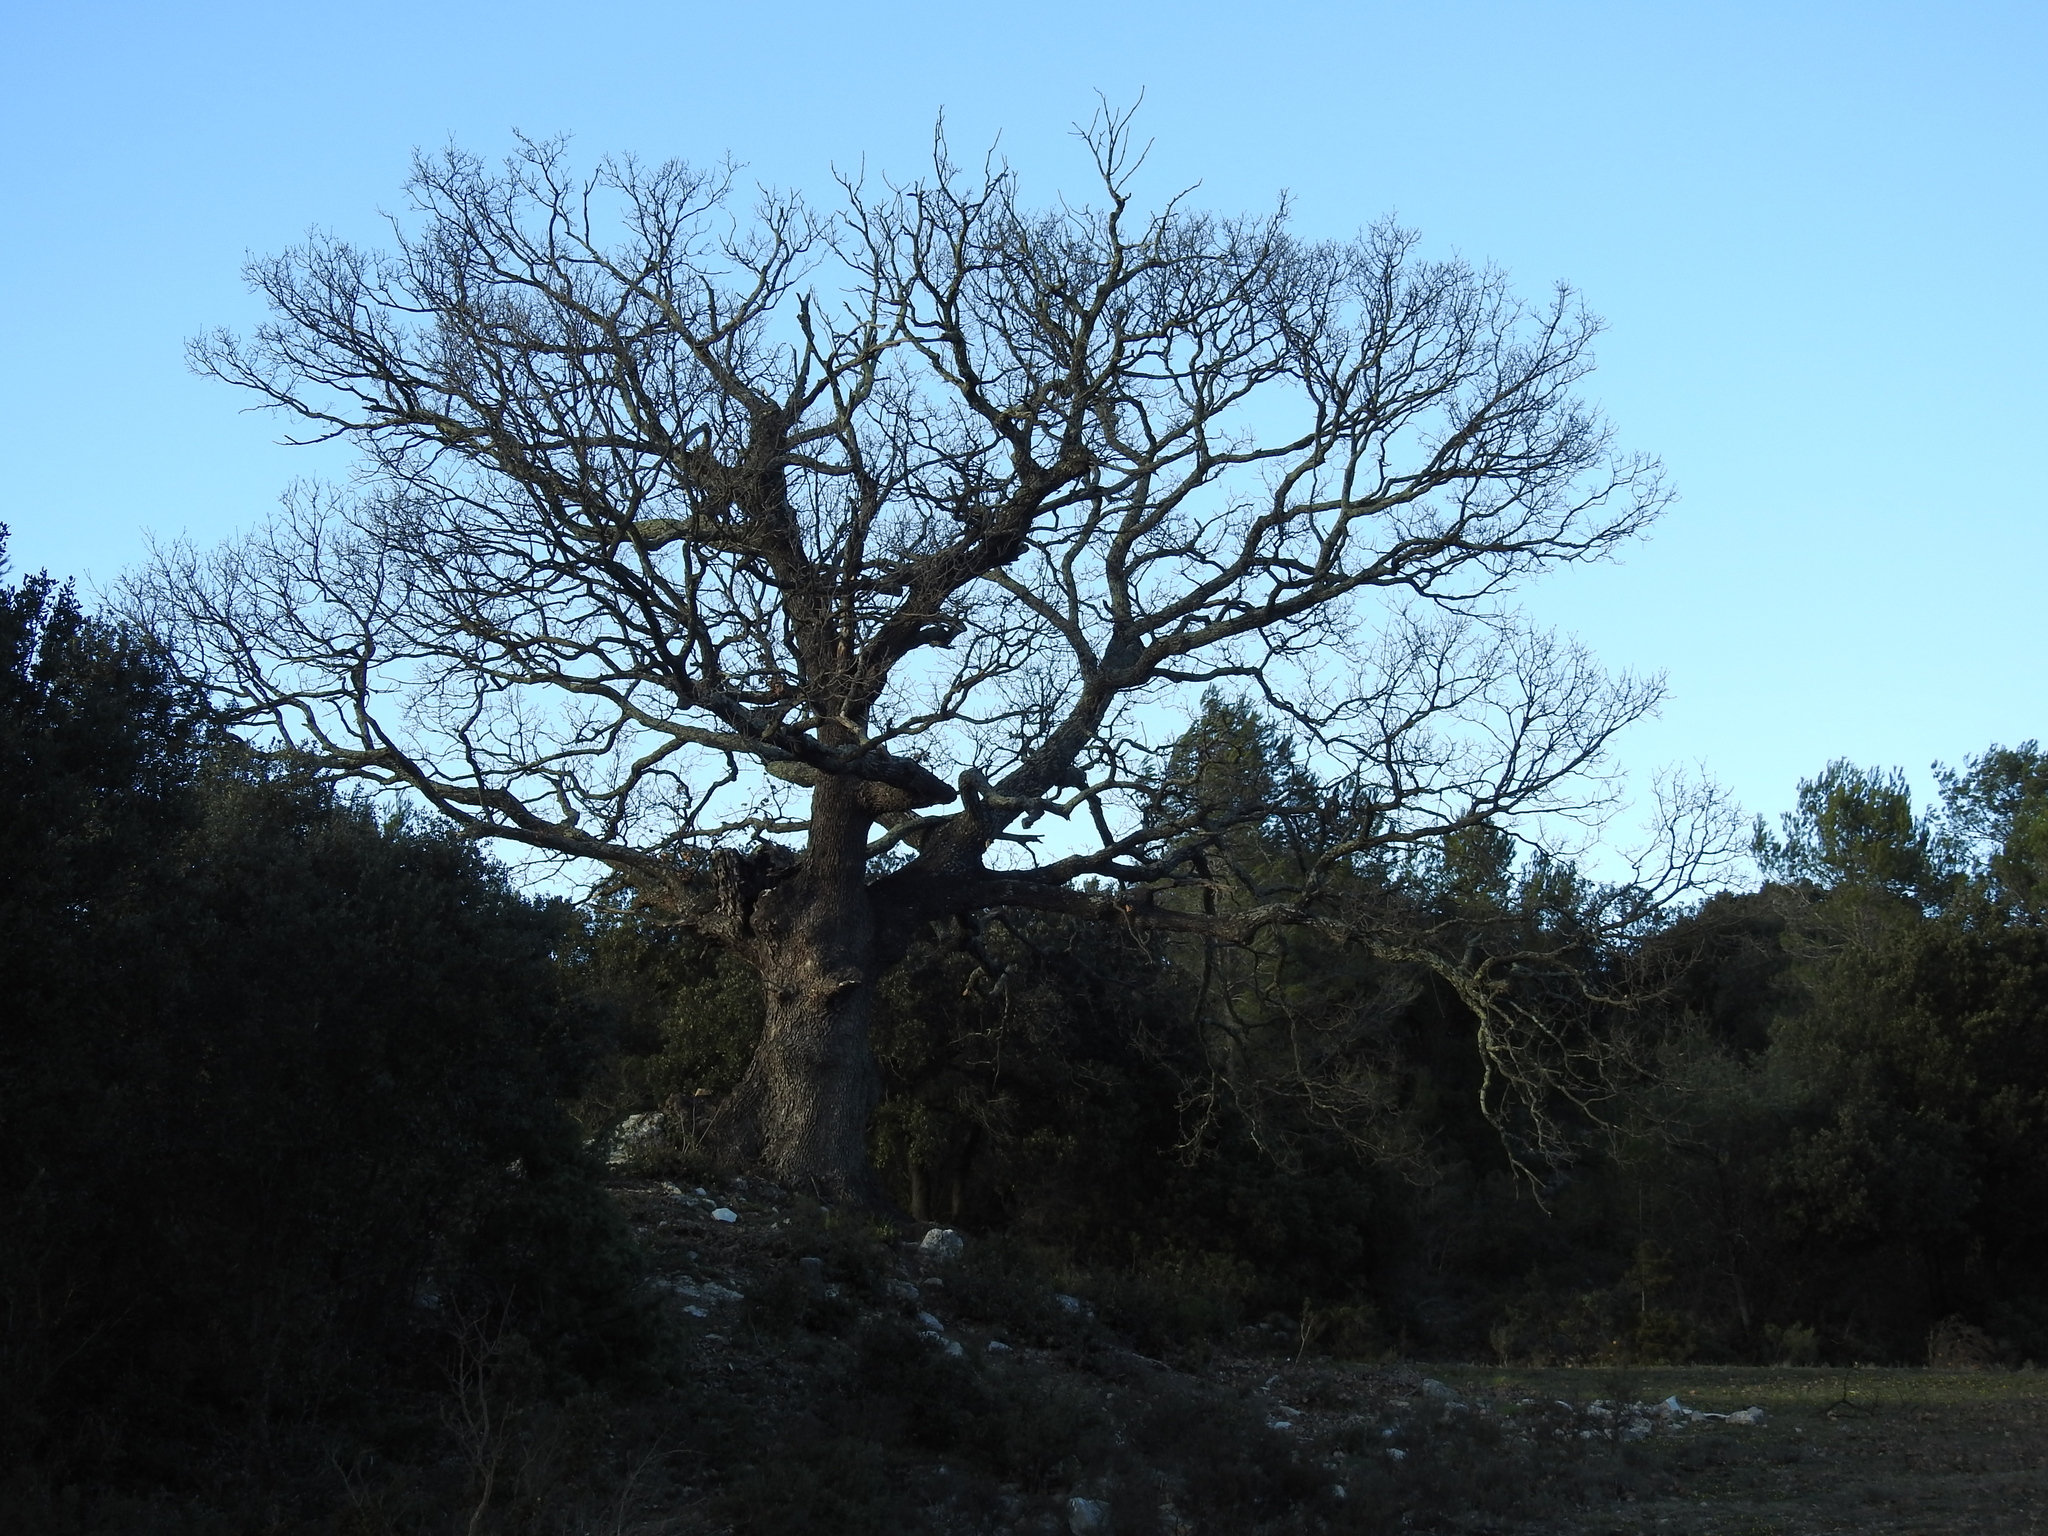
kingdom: Plantae
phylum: Tracheophyta
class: Magnoliopsida
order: Fagales
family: Fagaceae
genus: Quercus
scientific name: Quercus pubescens
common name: Downy oak
